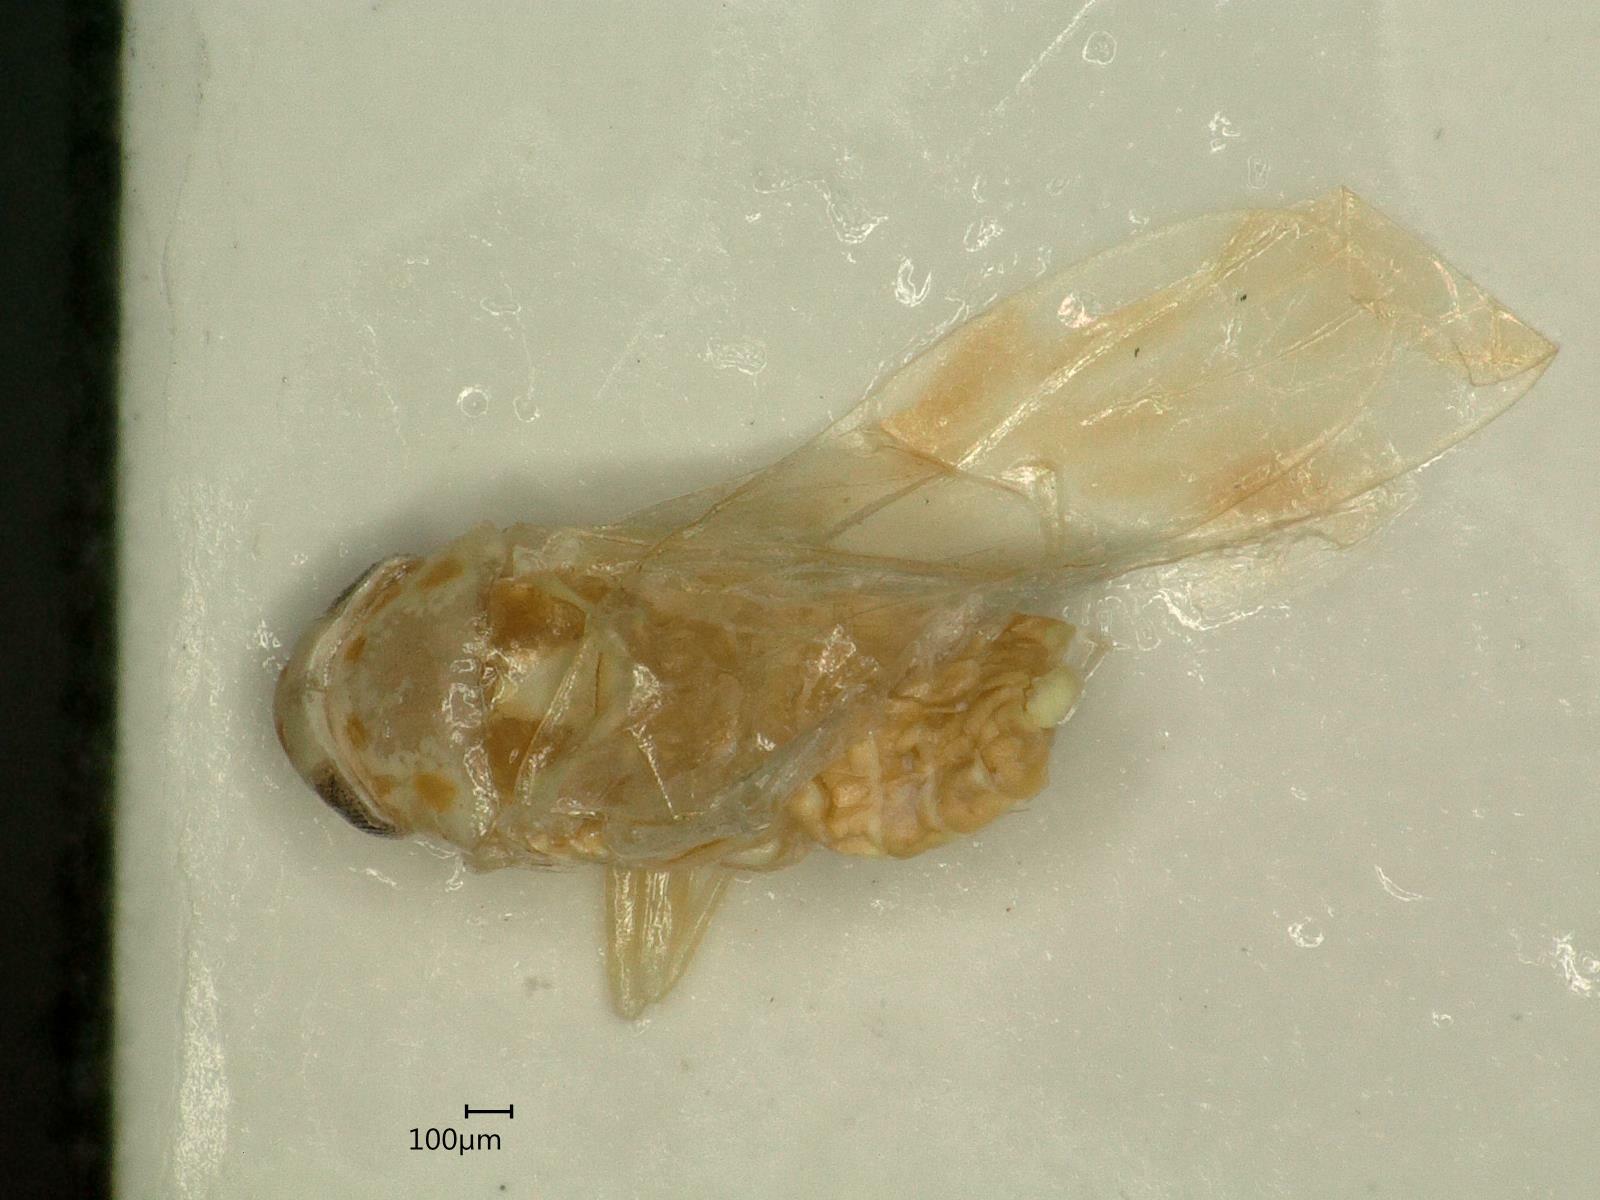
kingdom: Animalia
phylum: Arthropoda
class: Insecta
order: Hemiptera
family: Cicadellidae
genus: Linnavuoriana
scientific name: Linnavuoriana intercedens
